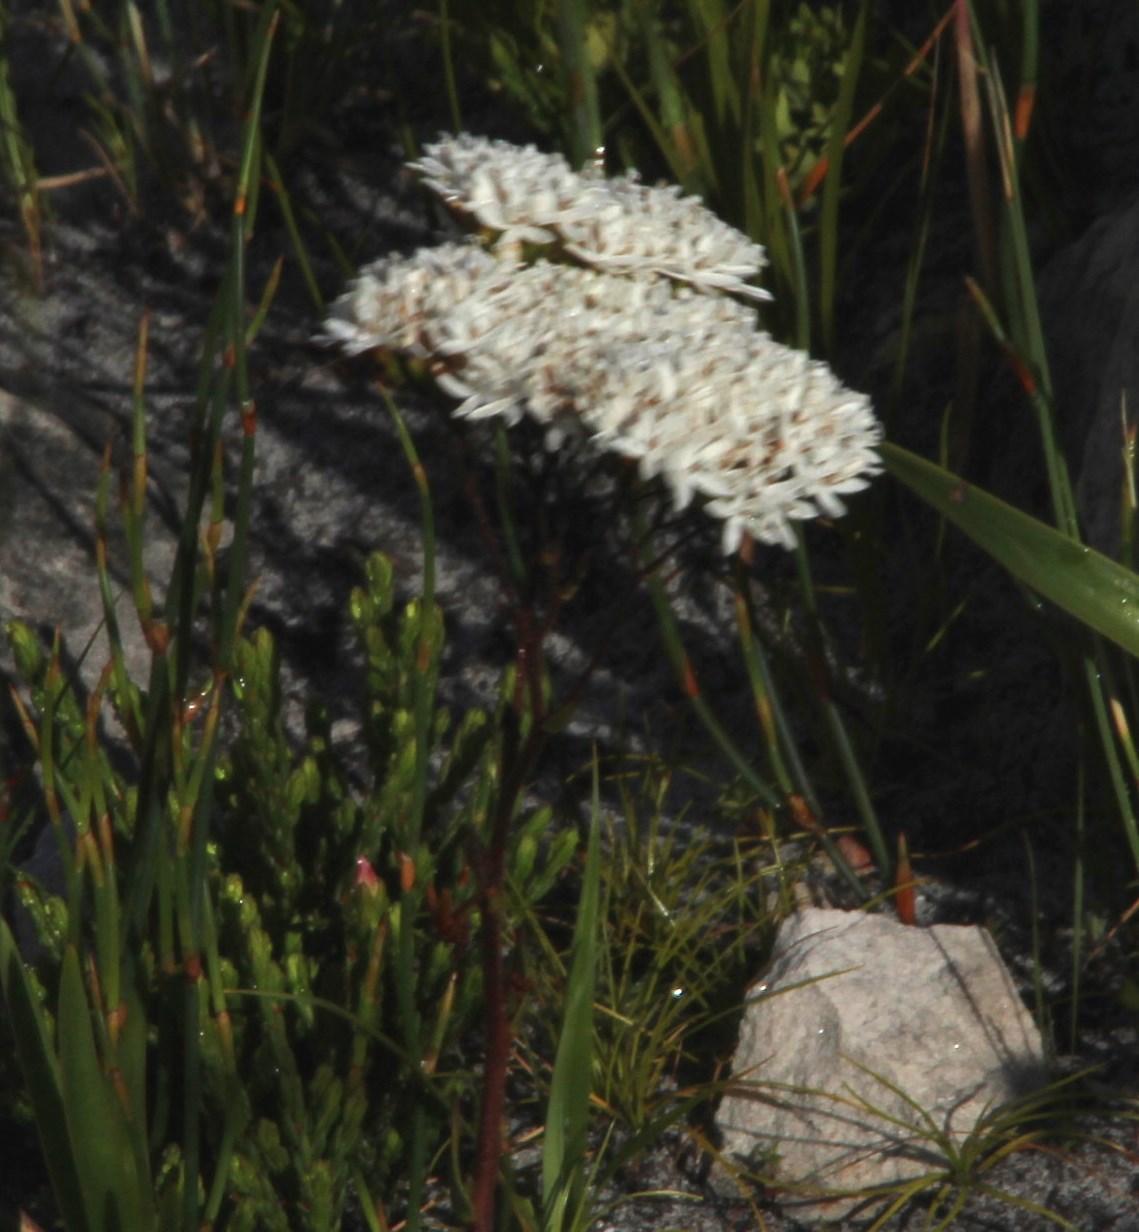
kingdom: Plantae
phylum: Tracheophyta
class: Magnoliopsida
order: Asterales
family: Asteraceae
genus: Corymbium
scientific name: Corymbium enerve
